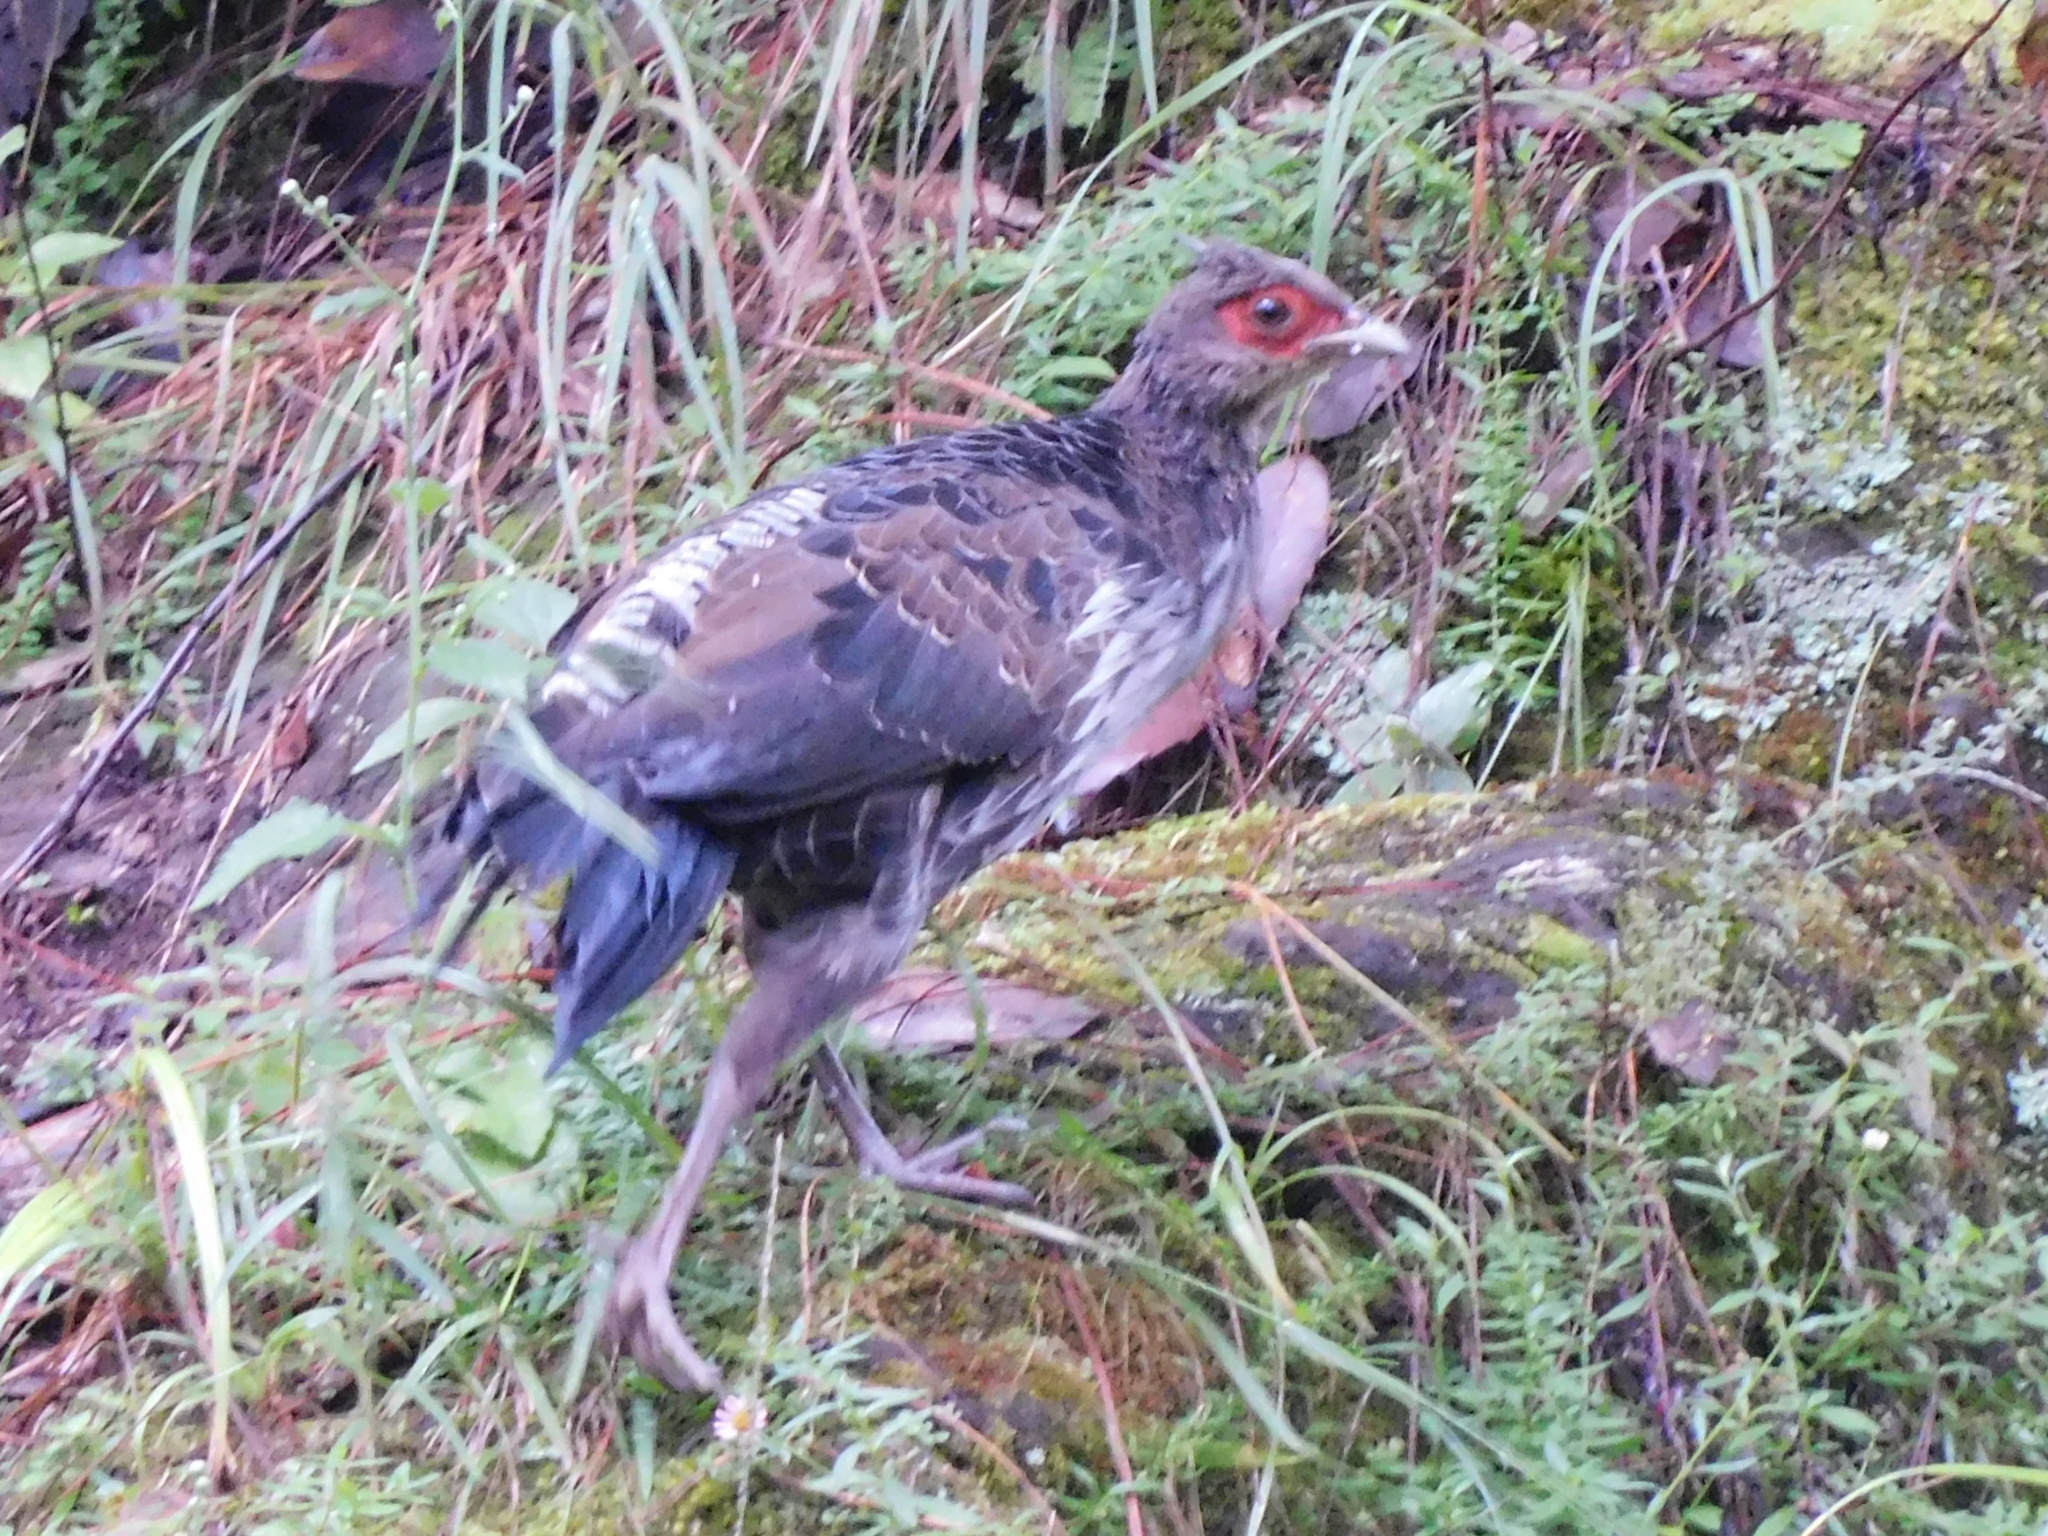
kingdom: Animalia
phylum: Chordata
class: Aves
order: Galliformes
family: Phasianidae
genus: Lophura
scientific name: Lophura leucomelanos
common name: Kalij pheasant
